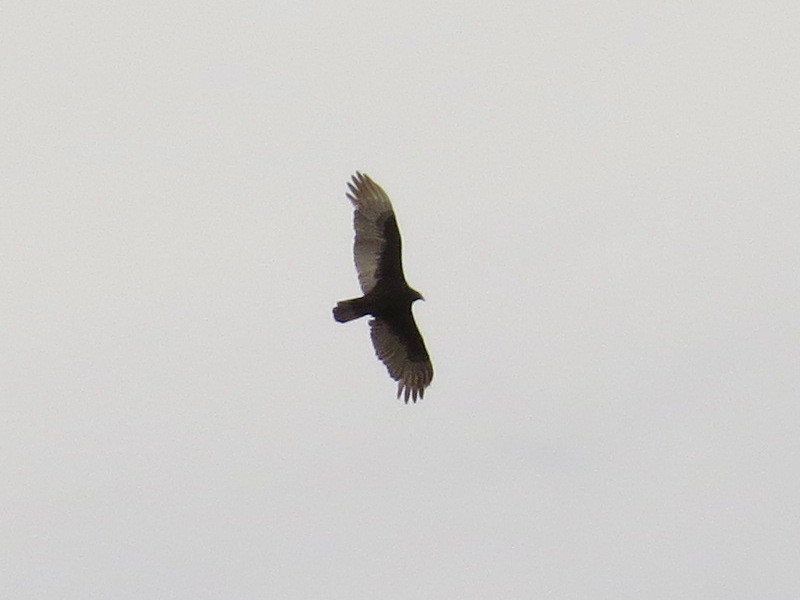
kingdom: Animalia
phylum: Chordata
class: Aves
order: Accipitriformes
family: Cathartidae
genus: Cathartes
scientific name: Cathartes aura
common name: Turkey vulture
